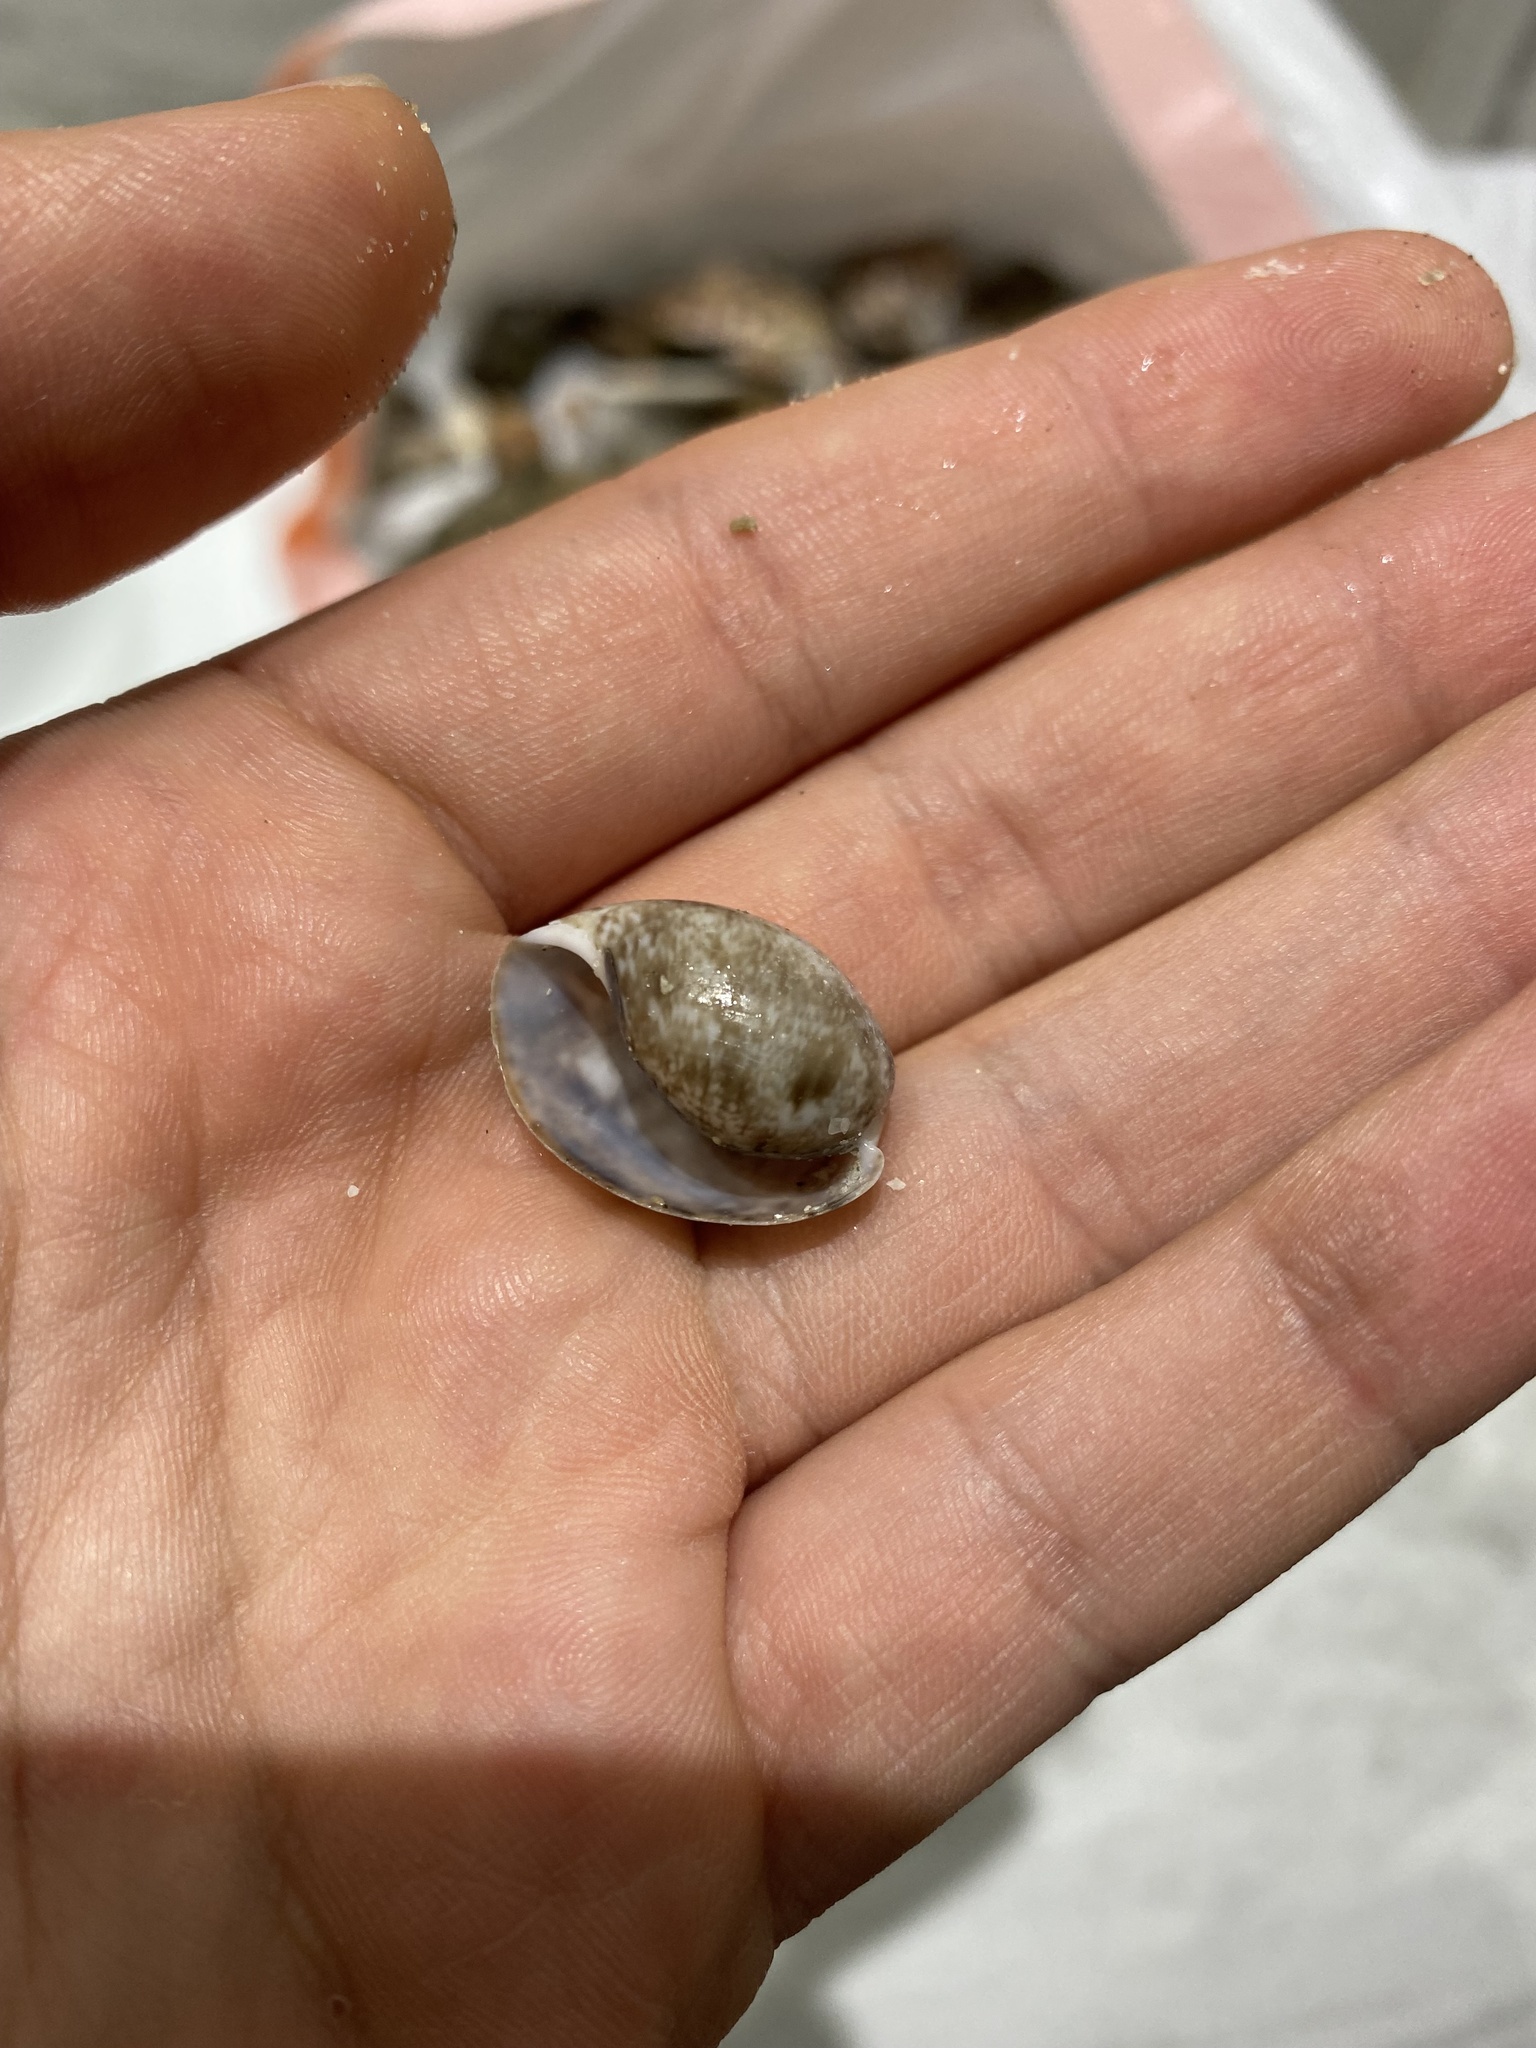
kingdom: Animalia
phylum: Mollusca
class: Gastropoda
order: Cephalaspidea
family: Bullidae
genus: Bulla
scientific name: Bulla gouldiana
